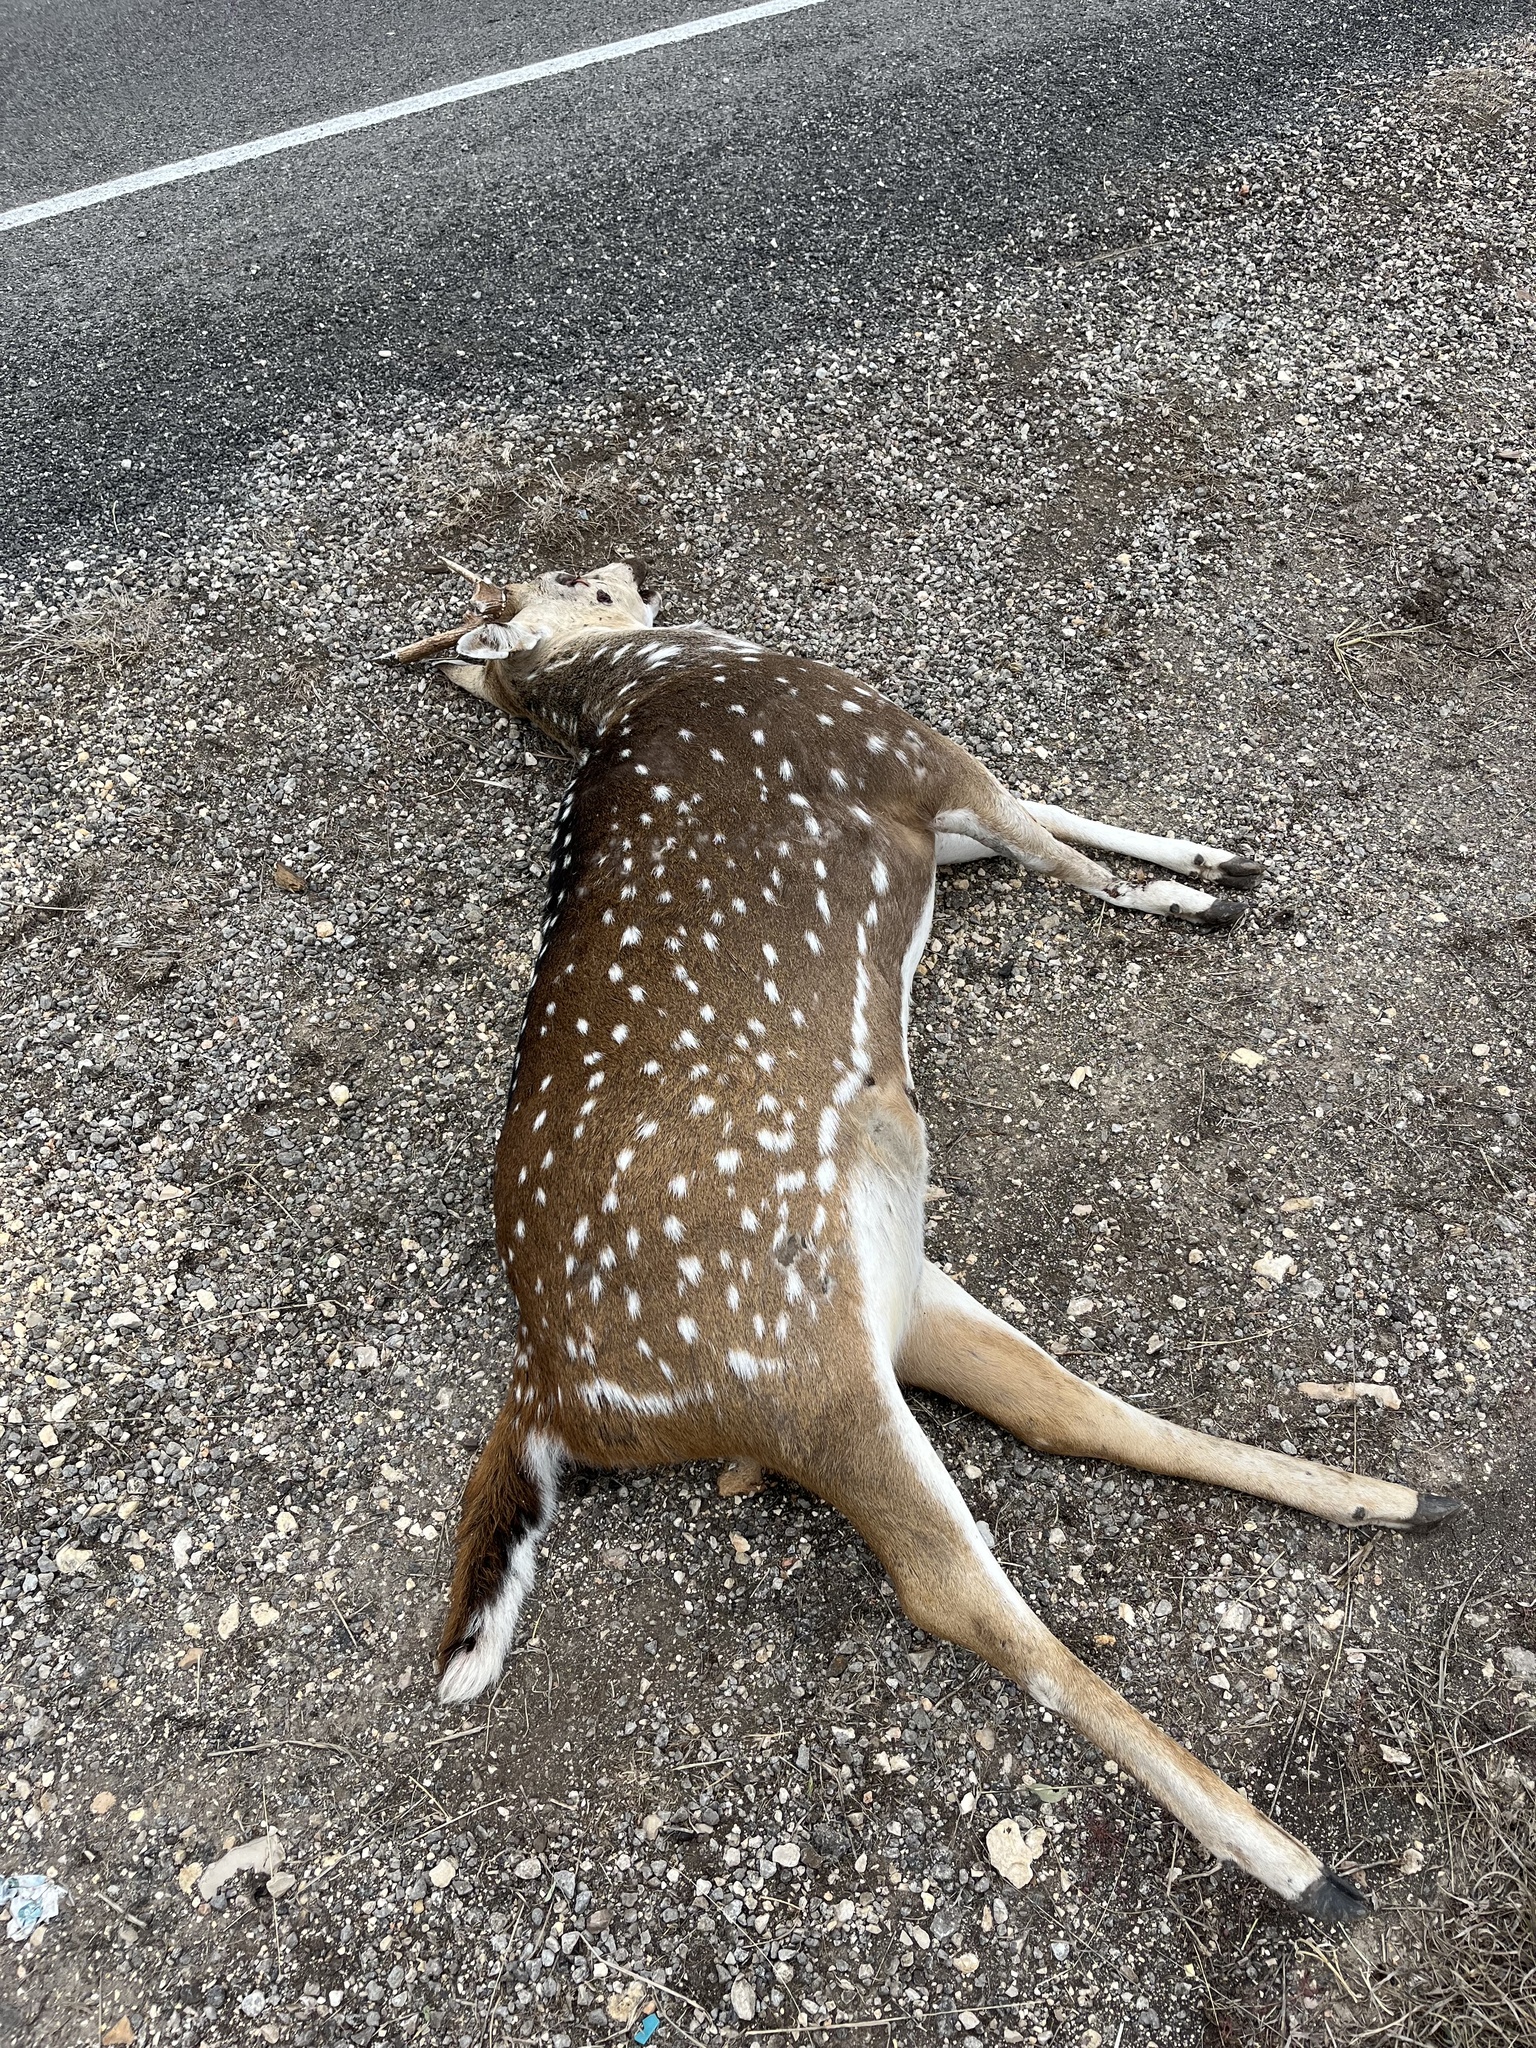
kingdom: Animalia
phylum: Chordata
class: Mammalia
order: Artiodactyla
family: Cervidae
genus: Axis
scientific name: Axis axis
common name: Chital
